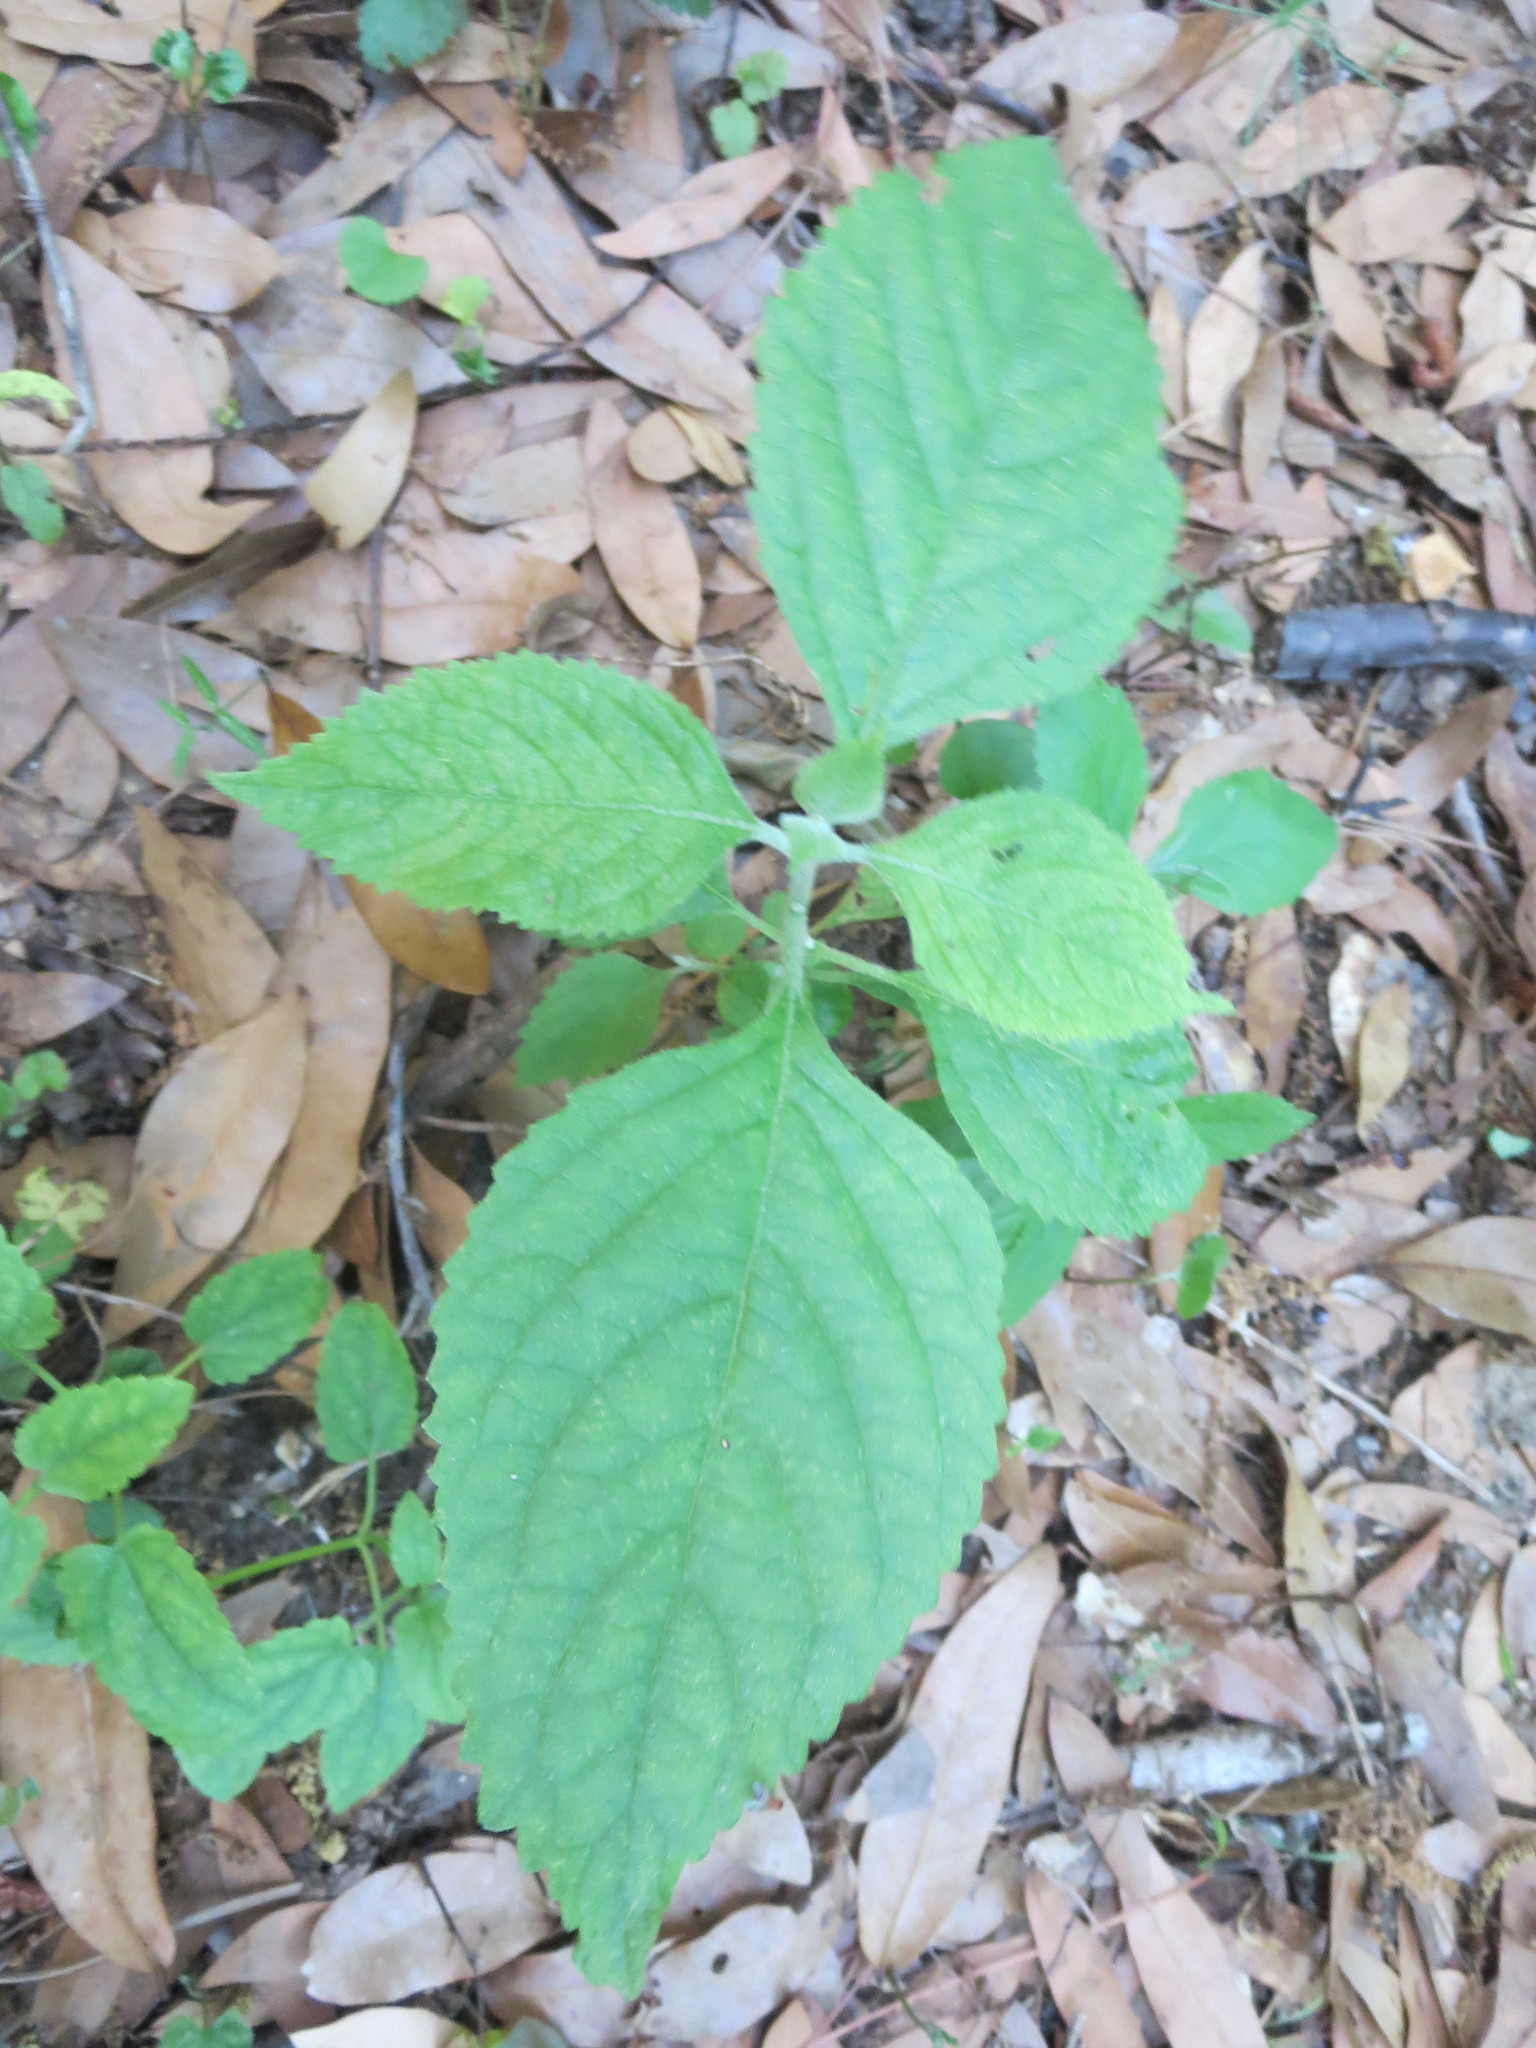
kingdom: Plantae
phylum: Tracheophyta
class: Magnoliopsida
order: Lamiales
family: Lamiaceae
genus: Callicarpa
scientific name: Callicarpa americana
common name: American beautyberry
